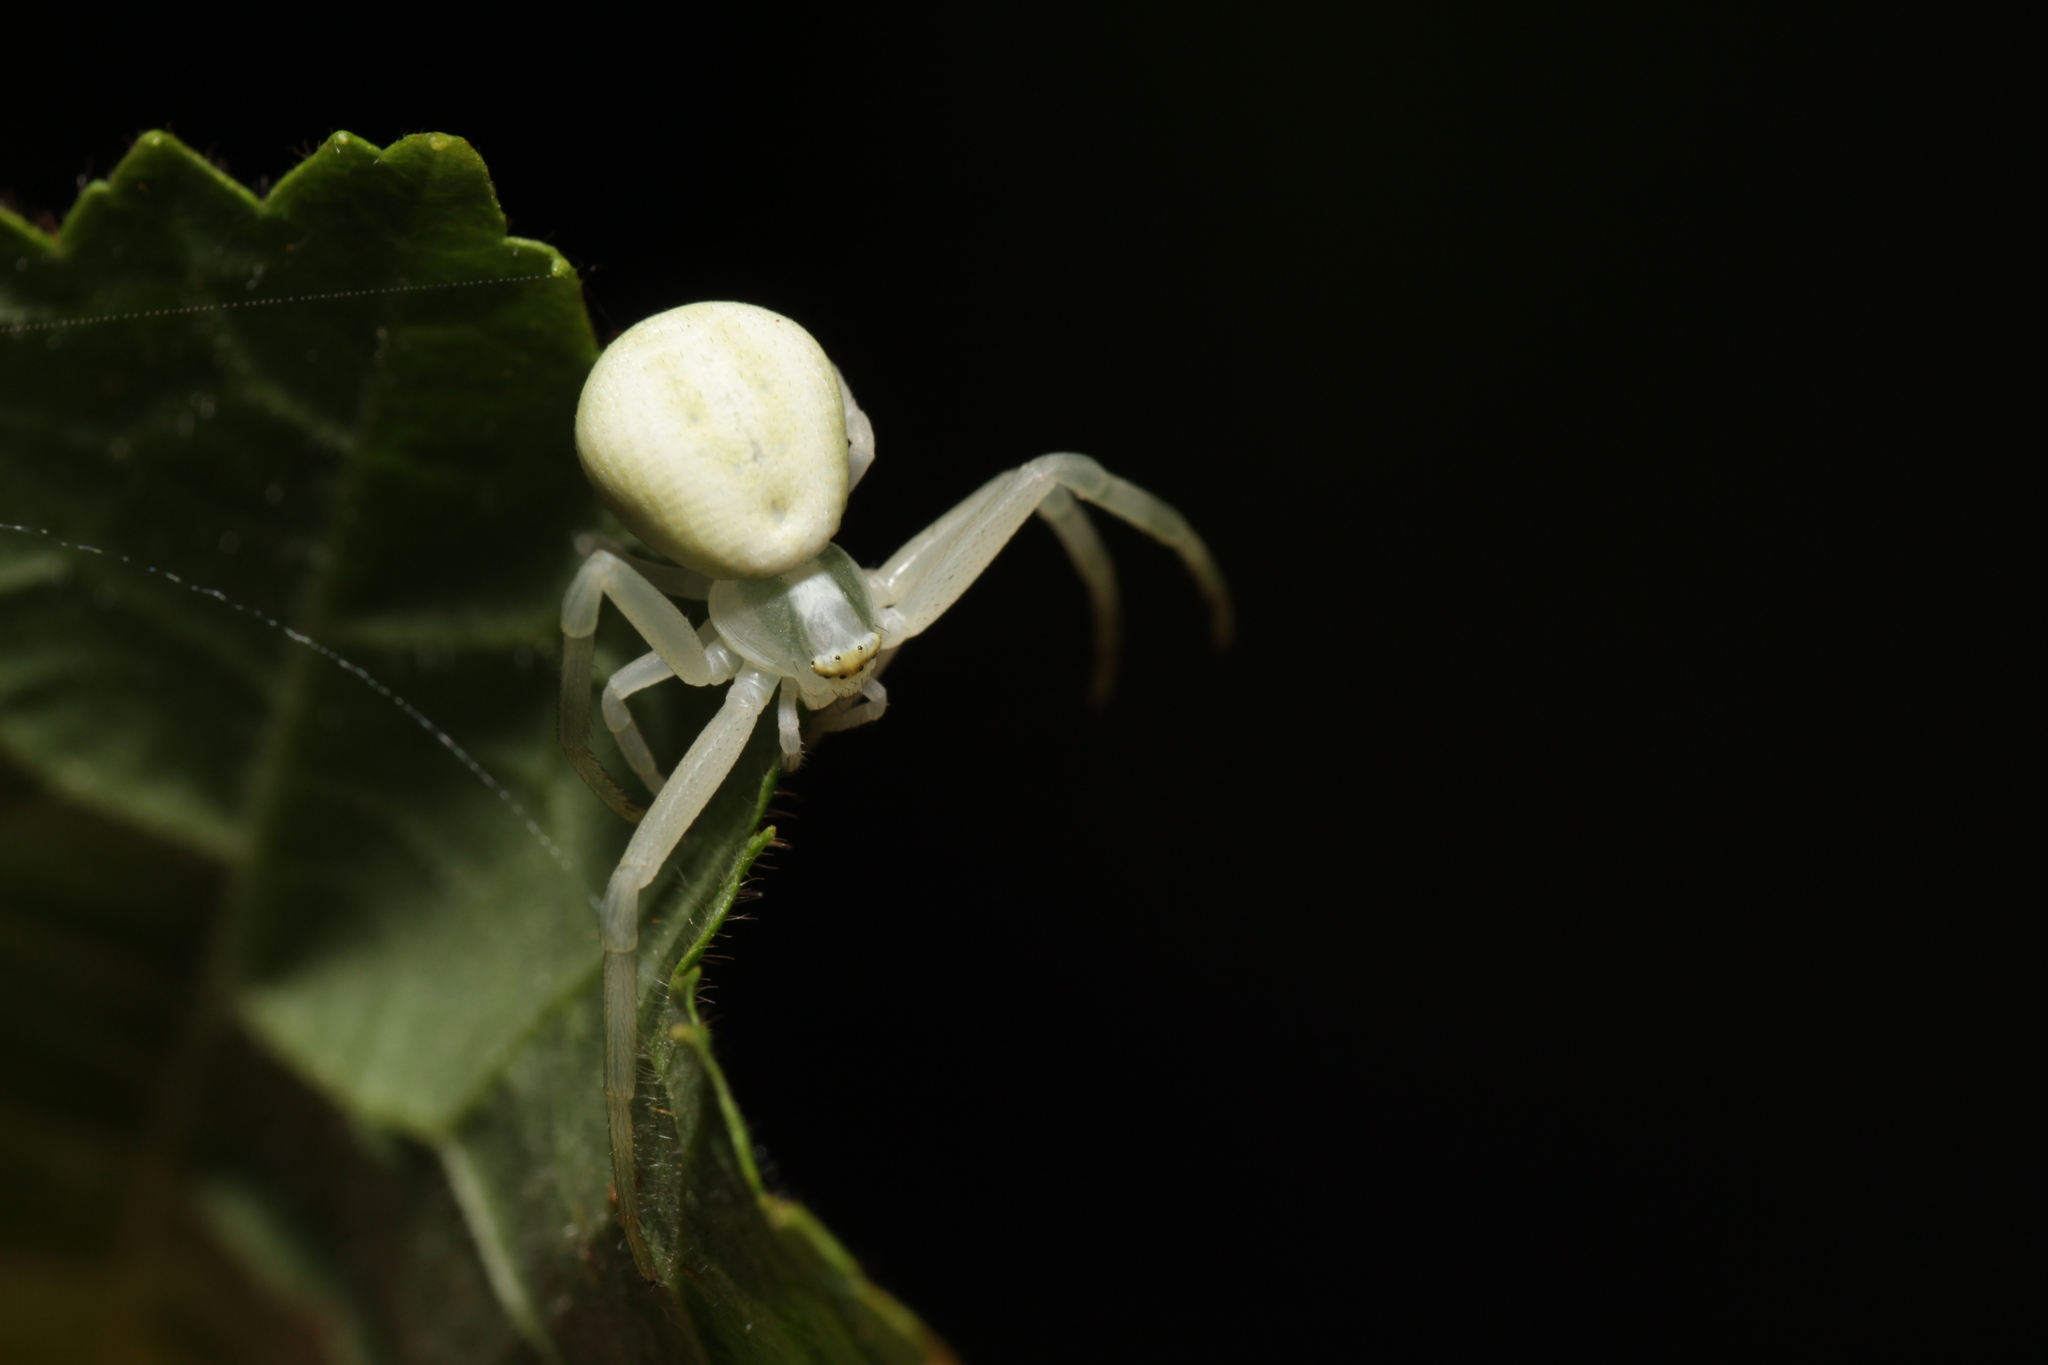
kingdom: Animalia
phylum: Arthropoda
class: Arachnida
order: Araneae
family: Thomisidae
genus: Misumena
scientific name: Misumena vatia
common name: Goldenrod crab spider
